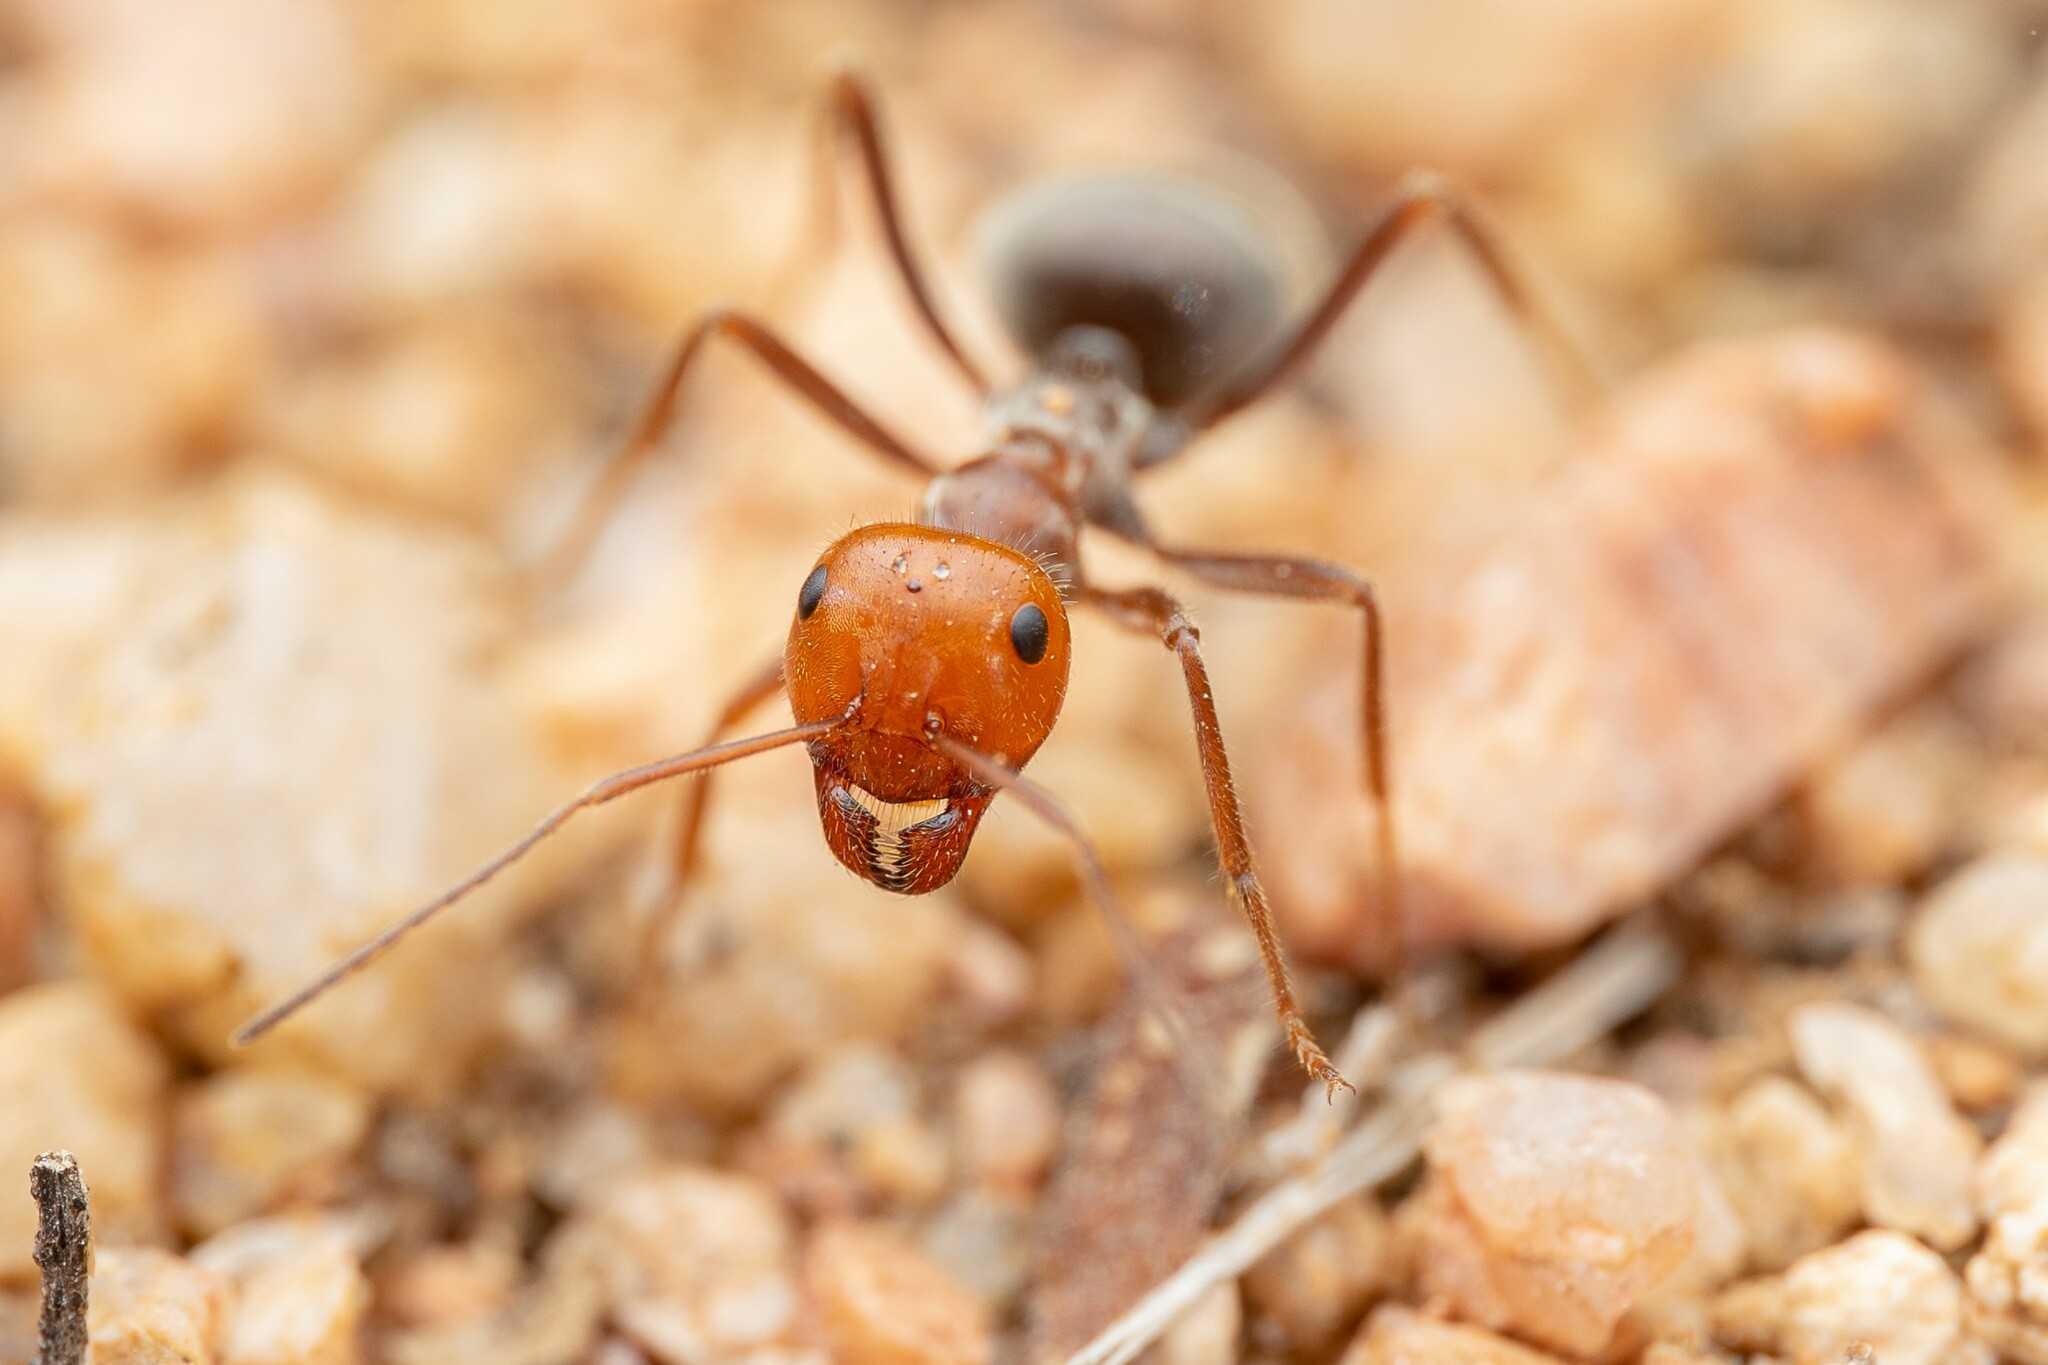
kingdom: Animalia
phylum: Arthropoda
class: Insecta
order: Hymenoptera
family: Formicidae
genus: Myrmecocystus
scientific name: Myrmecocystus placodops
